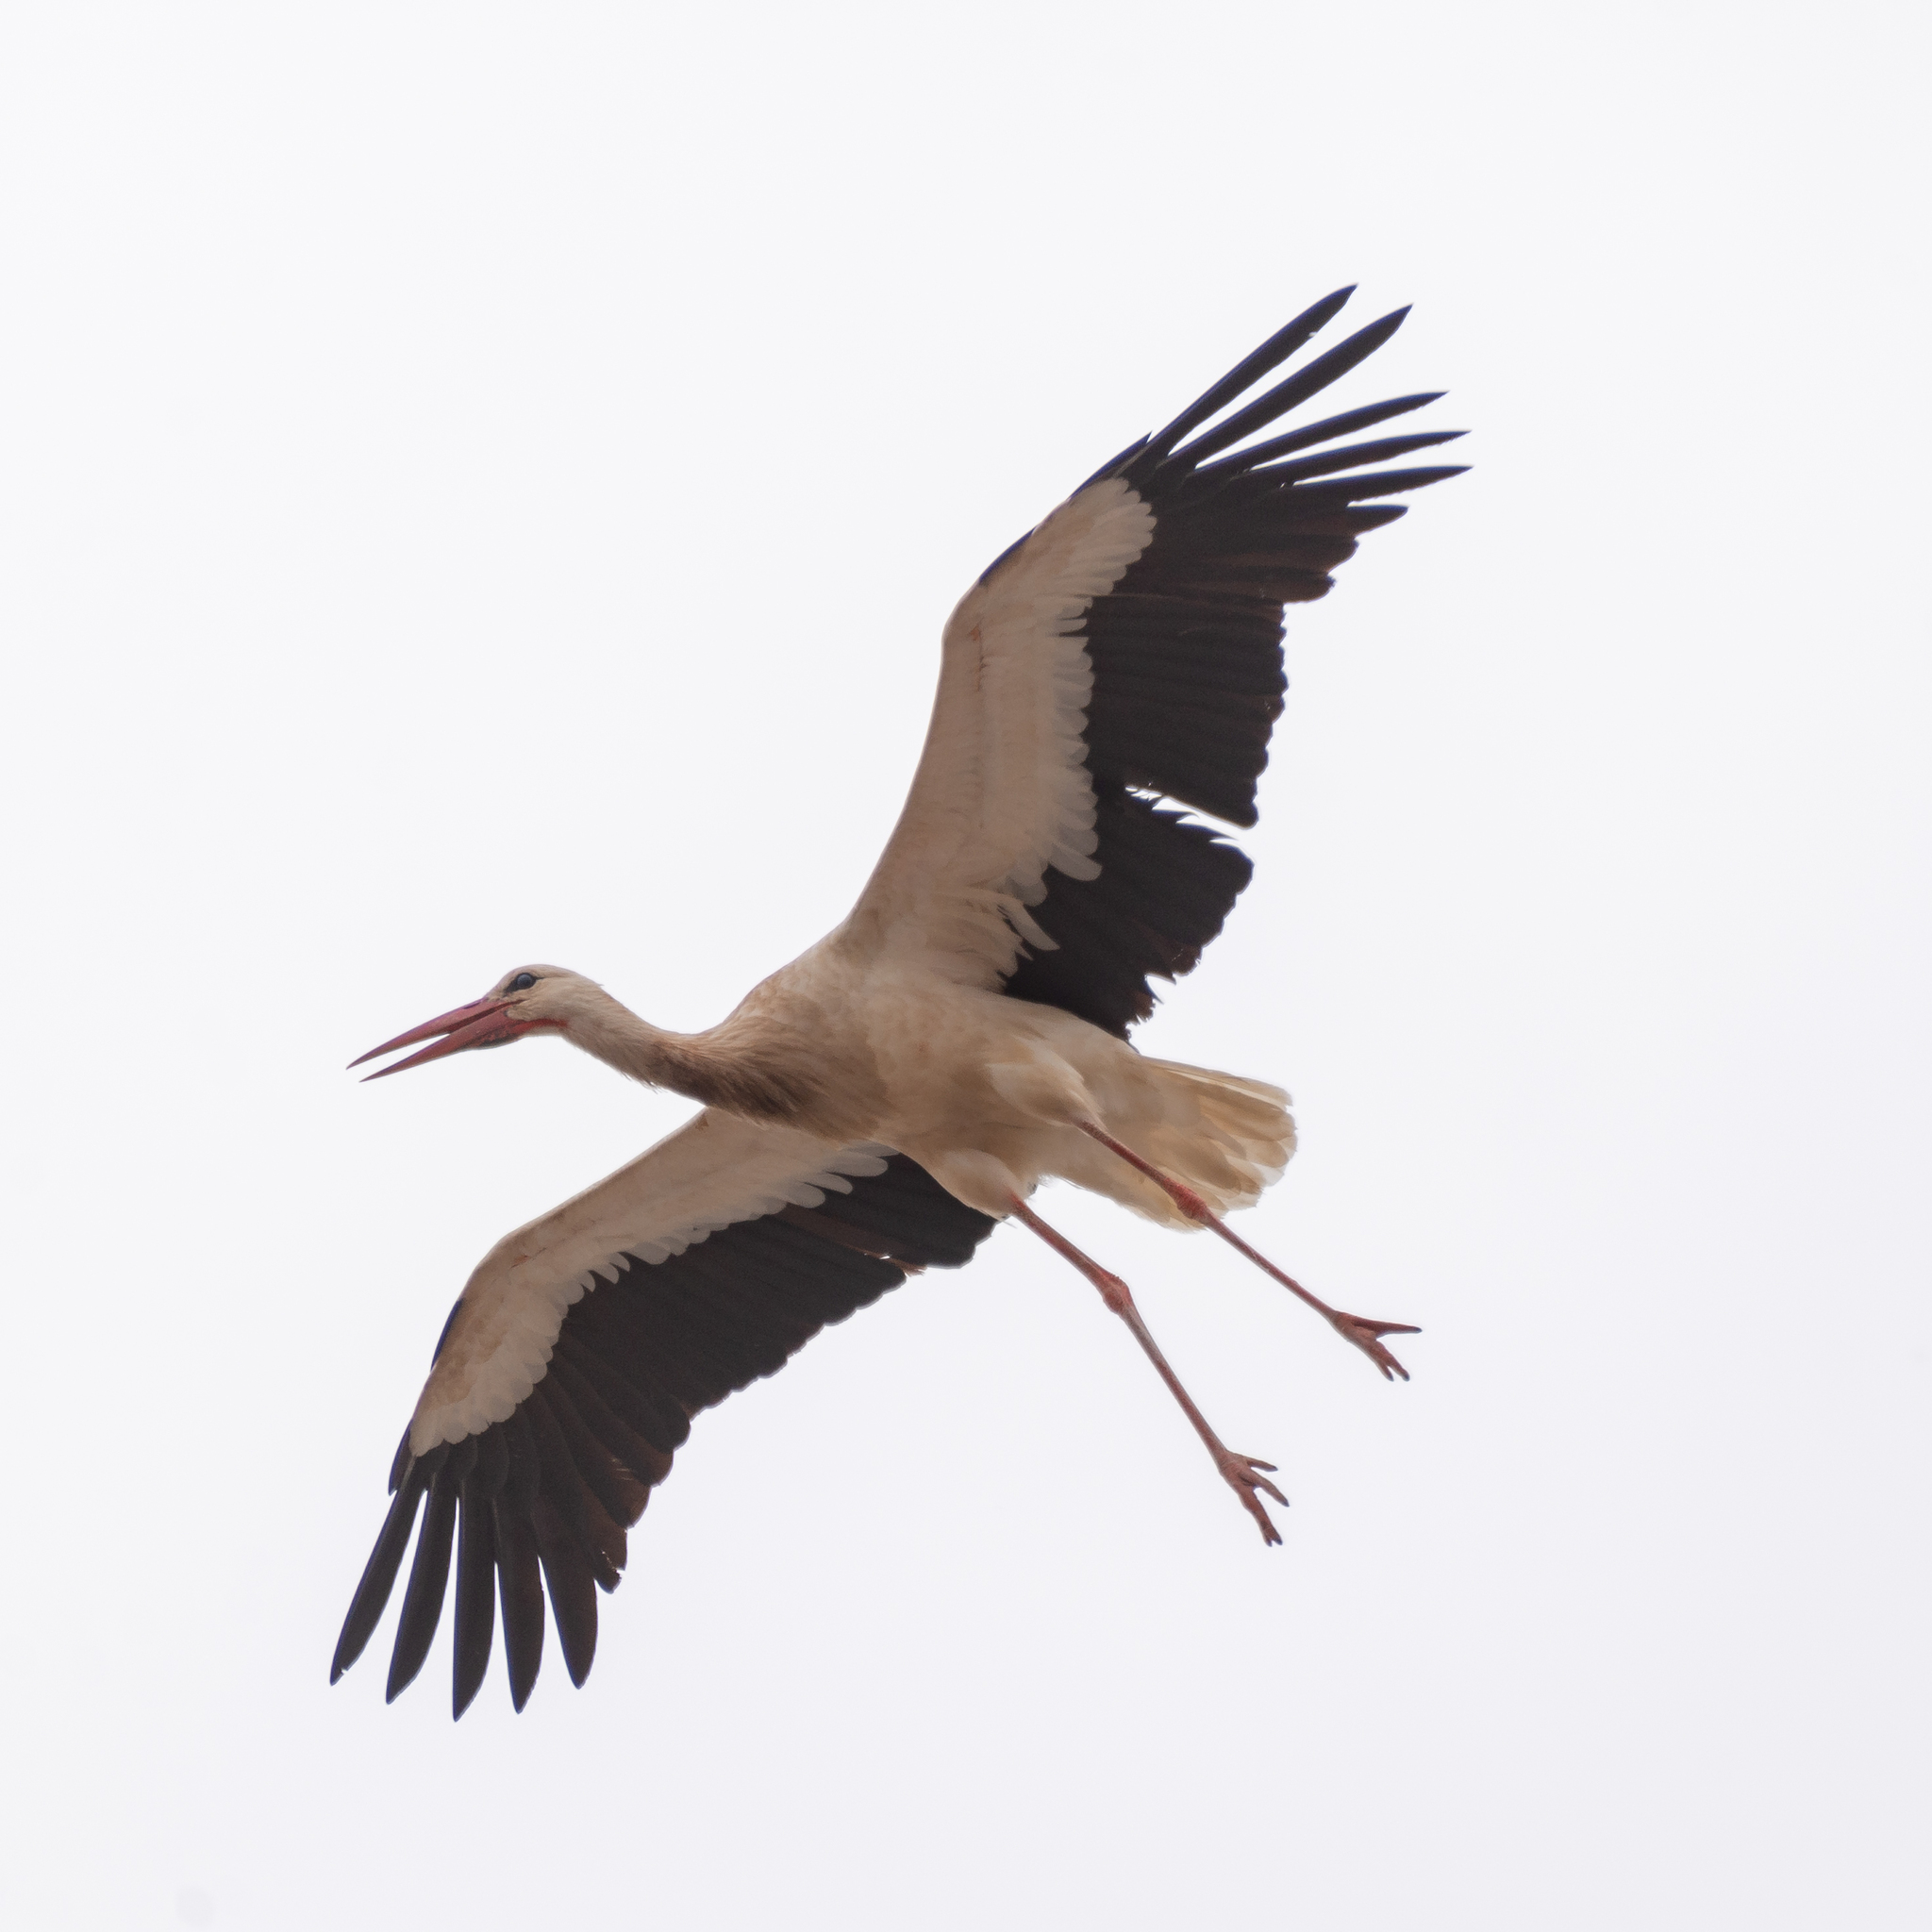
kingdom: Animalia
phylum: Chordata
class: Aves
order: Ciconiiformes
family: Ciconiidae
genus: Ciconia
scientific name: Ciconia ciconia
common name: White stork
